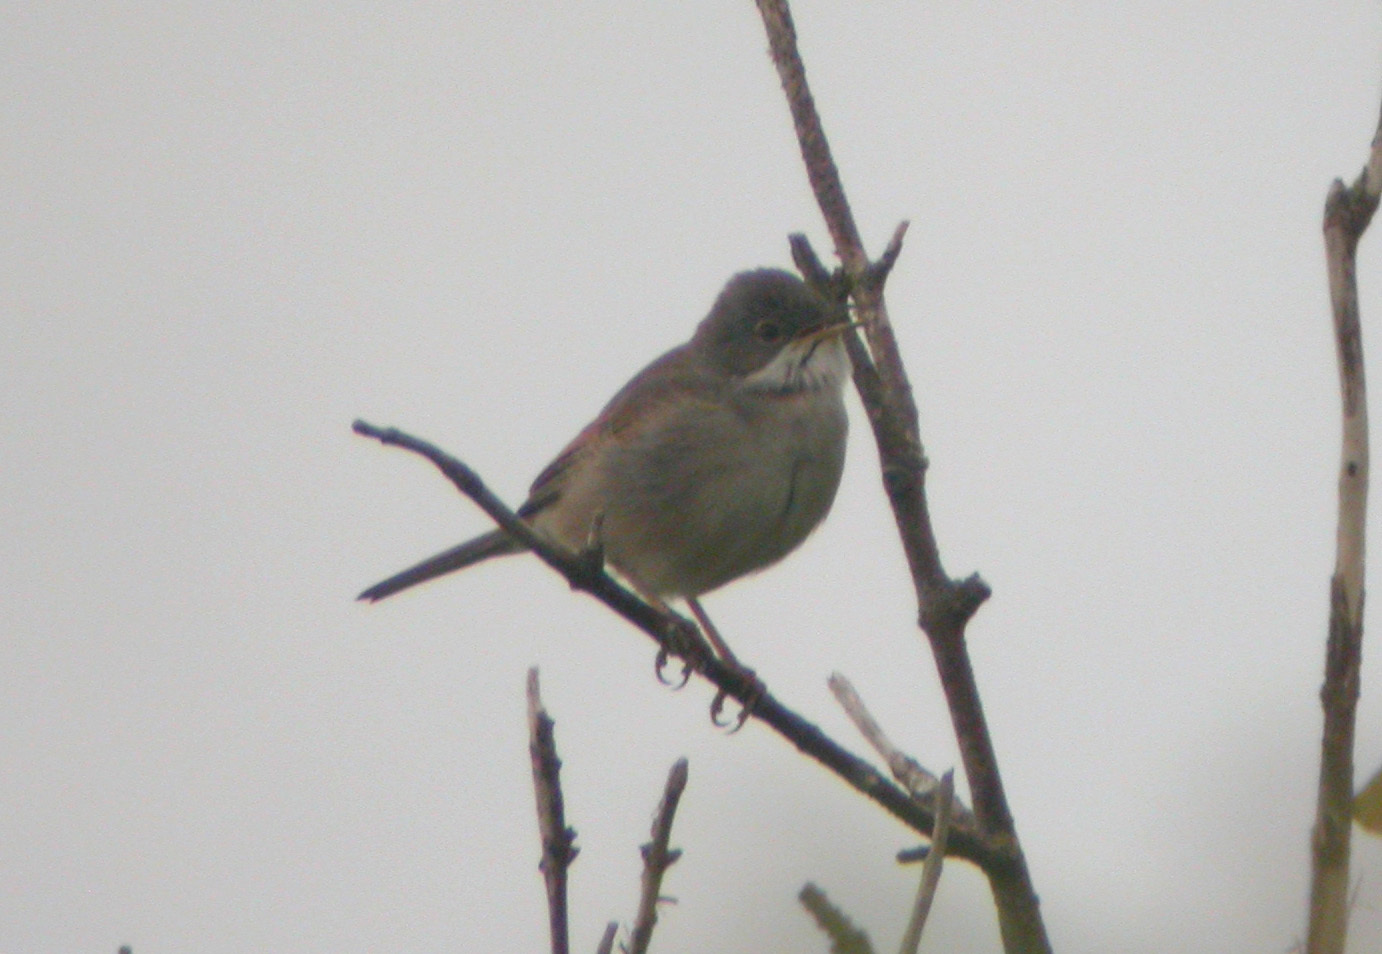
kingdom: Animalia
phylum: Chordata
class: Aves
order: Passeriformes
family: Sylviidae
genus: Sylvia
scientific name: Sylvia communis
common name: Common whitethroat
